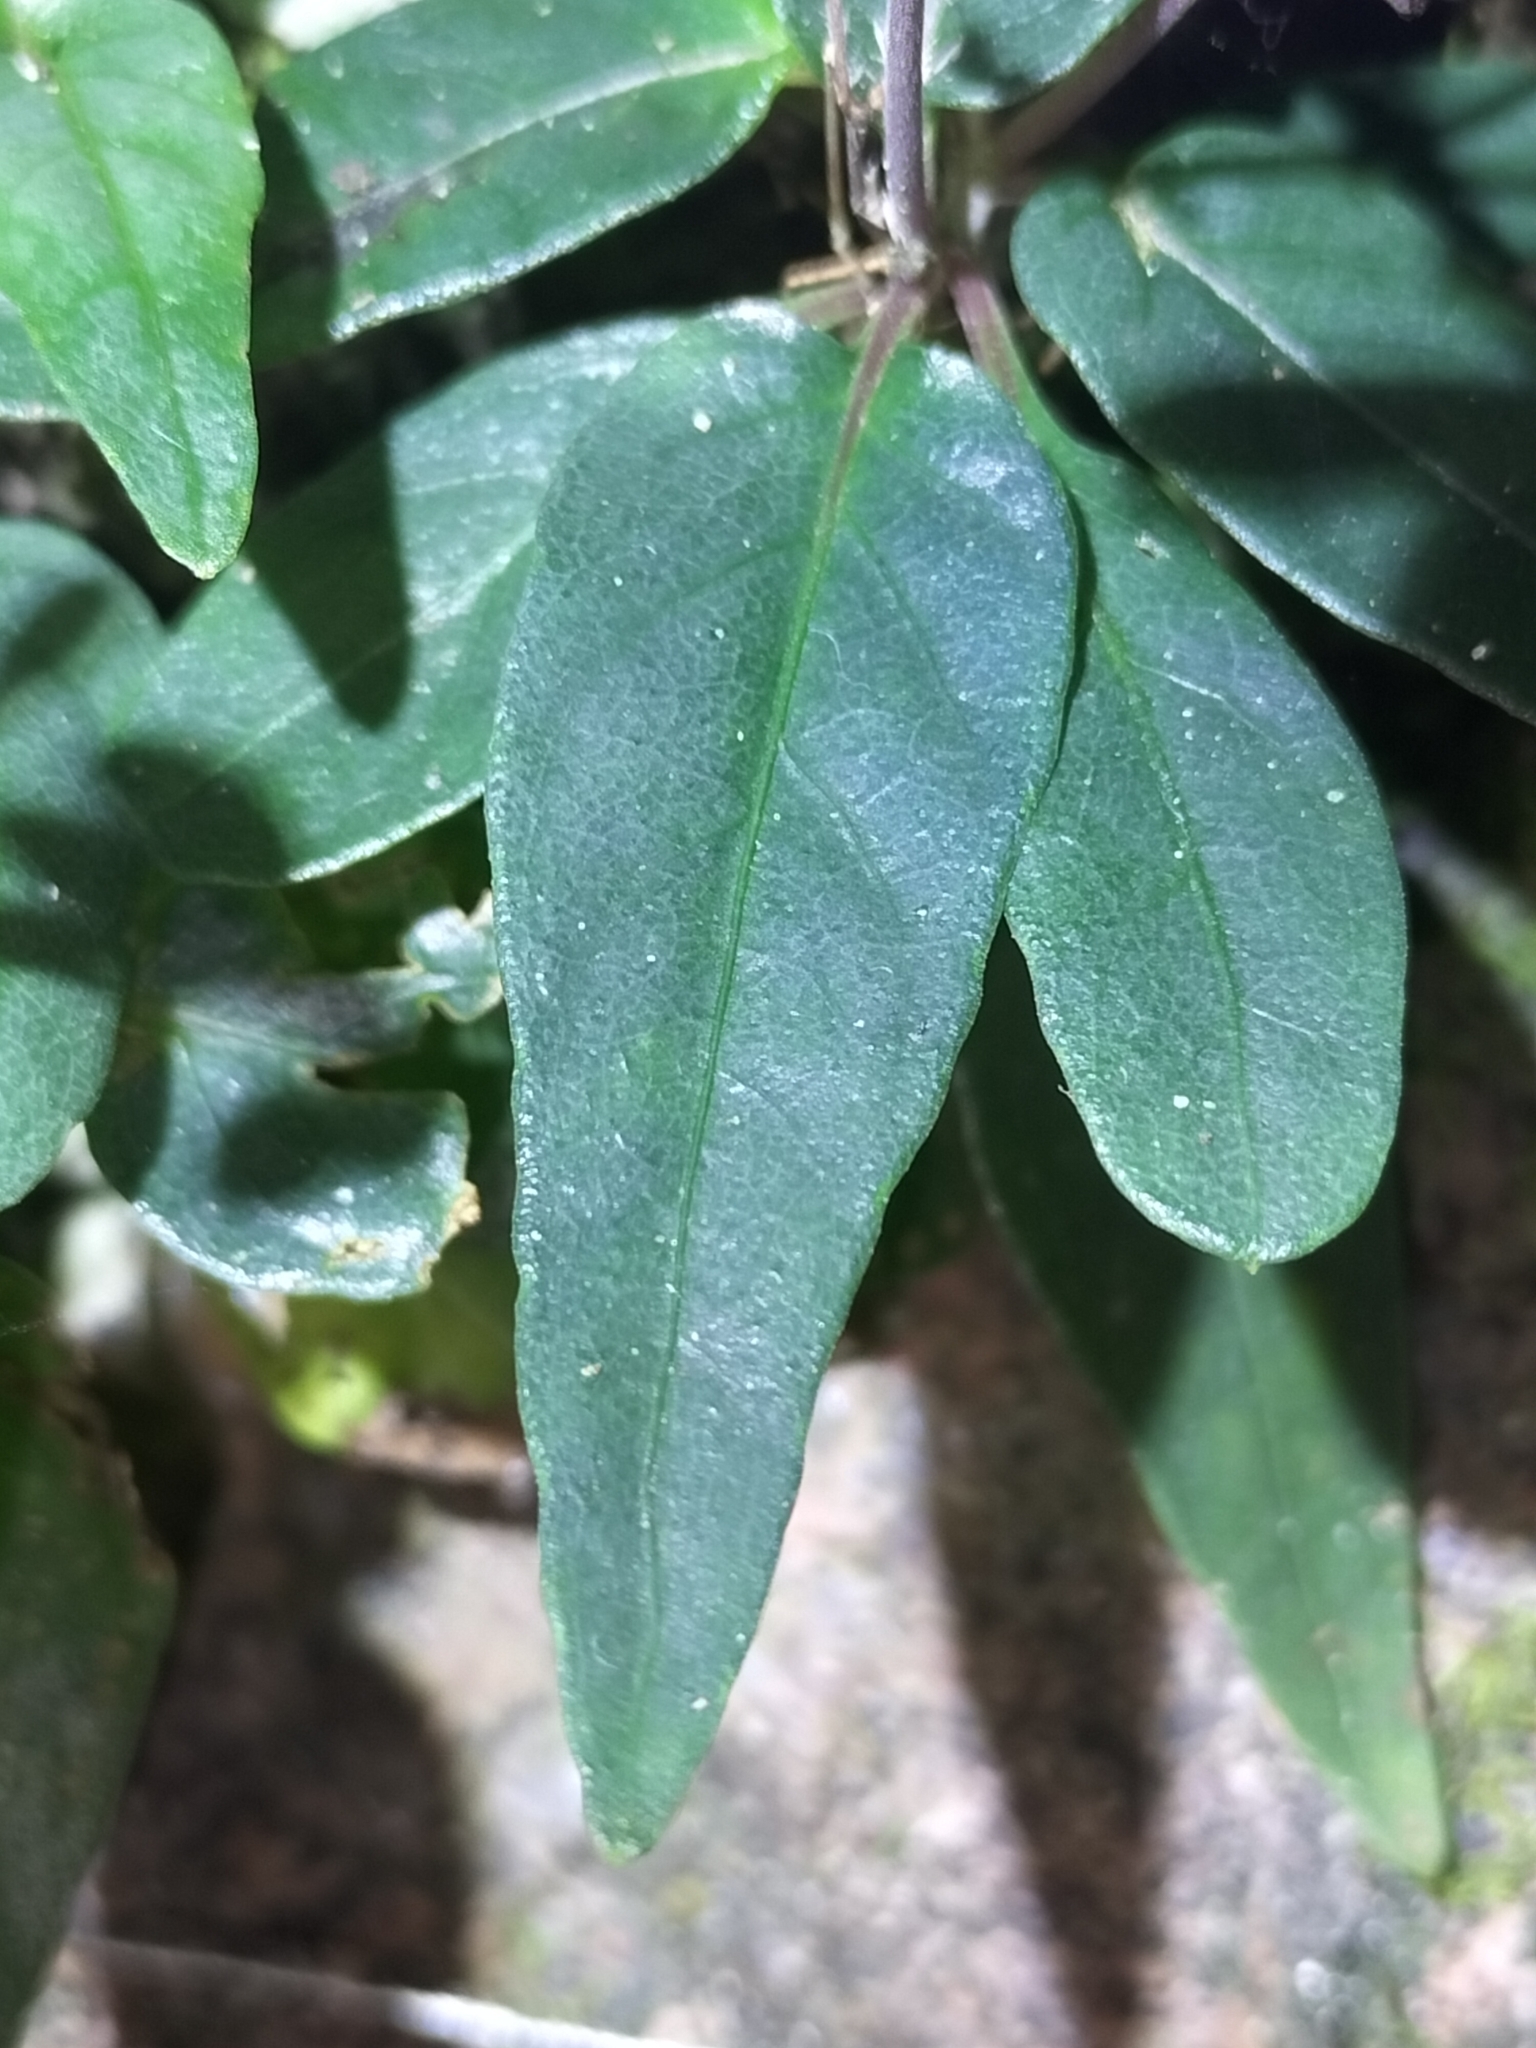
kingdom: Plantae
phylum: Tracheophyta
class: Magnoliopsida
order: Lamiales
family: Acanthaceae
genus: Pseuderanthemum
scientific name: Pseuderanthemum variabile
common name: Night and afternoon
